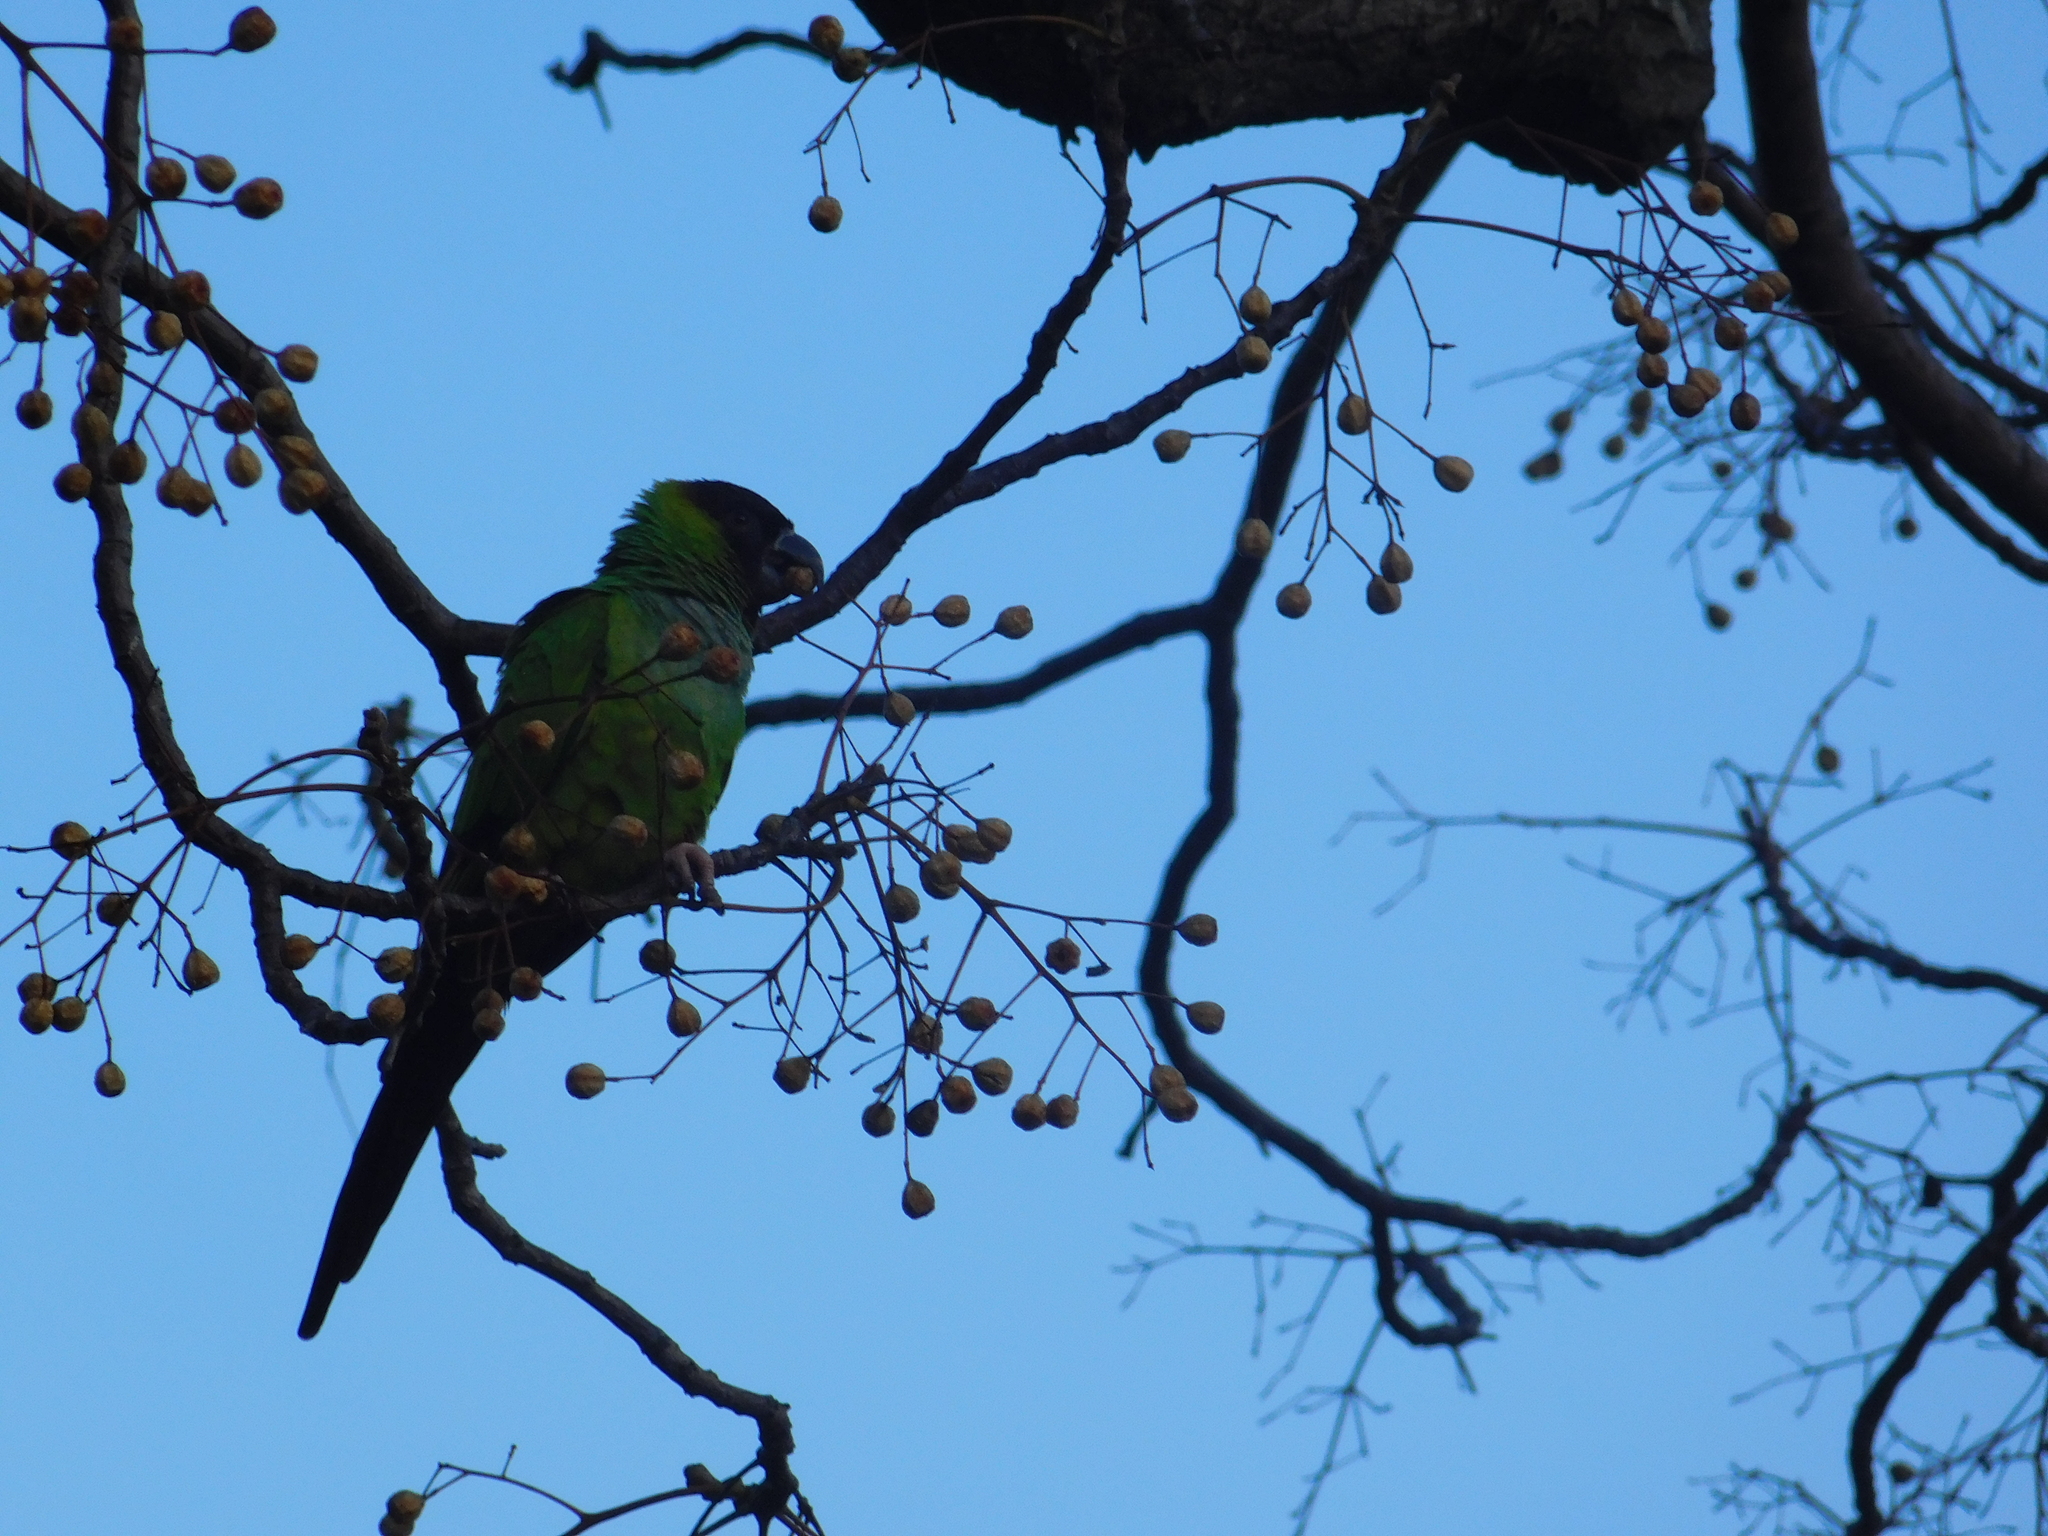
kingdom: Animalia
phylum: Chordata
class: Aves
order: Psittaciformes
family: Psittacidae
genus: Nandayus
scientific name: Nandayus nenday
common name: Nanday parakeet
